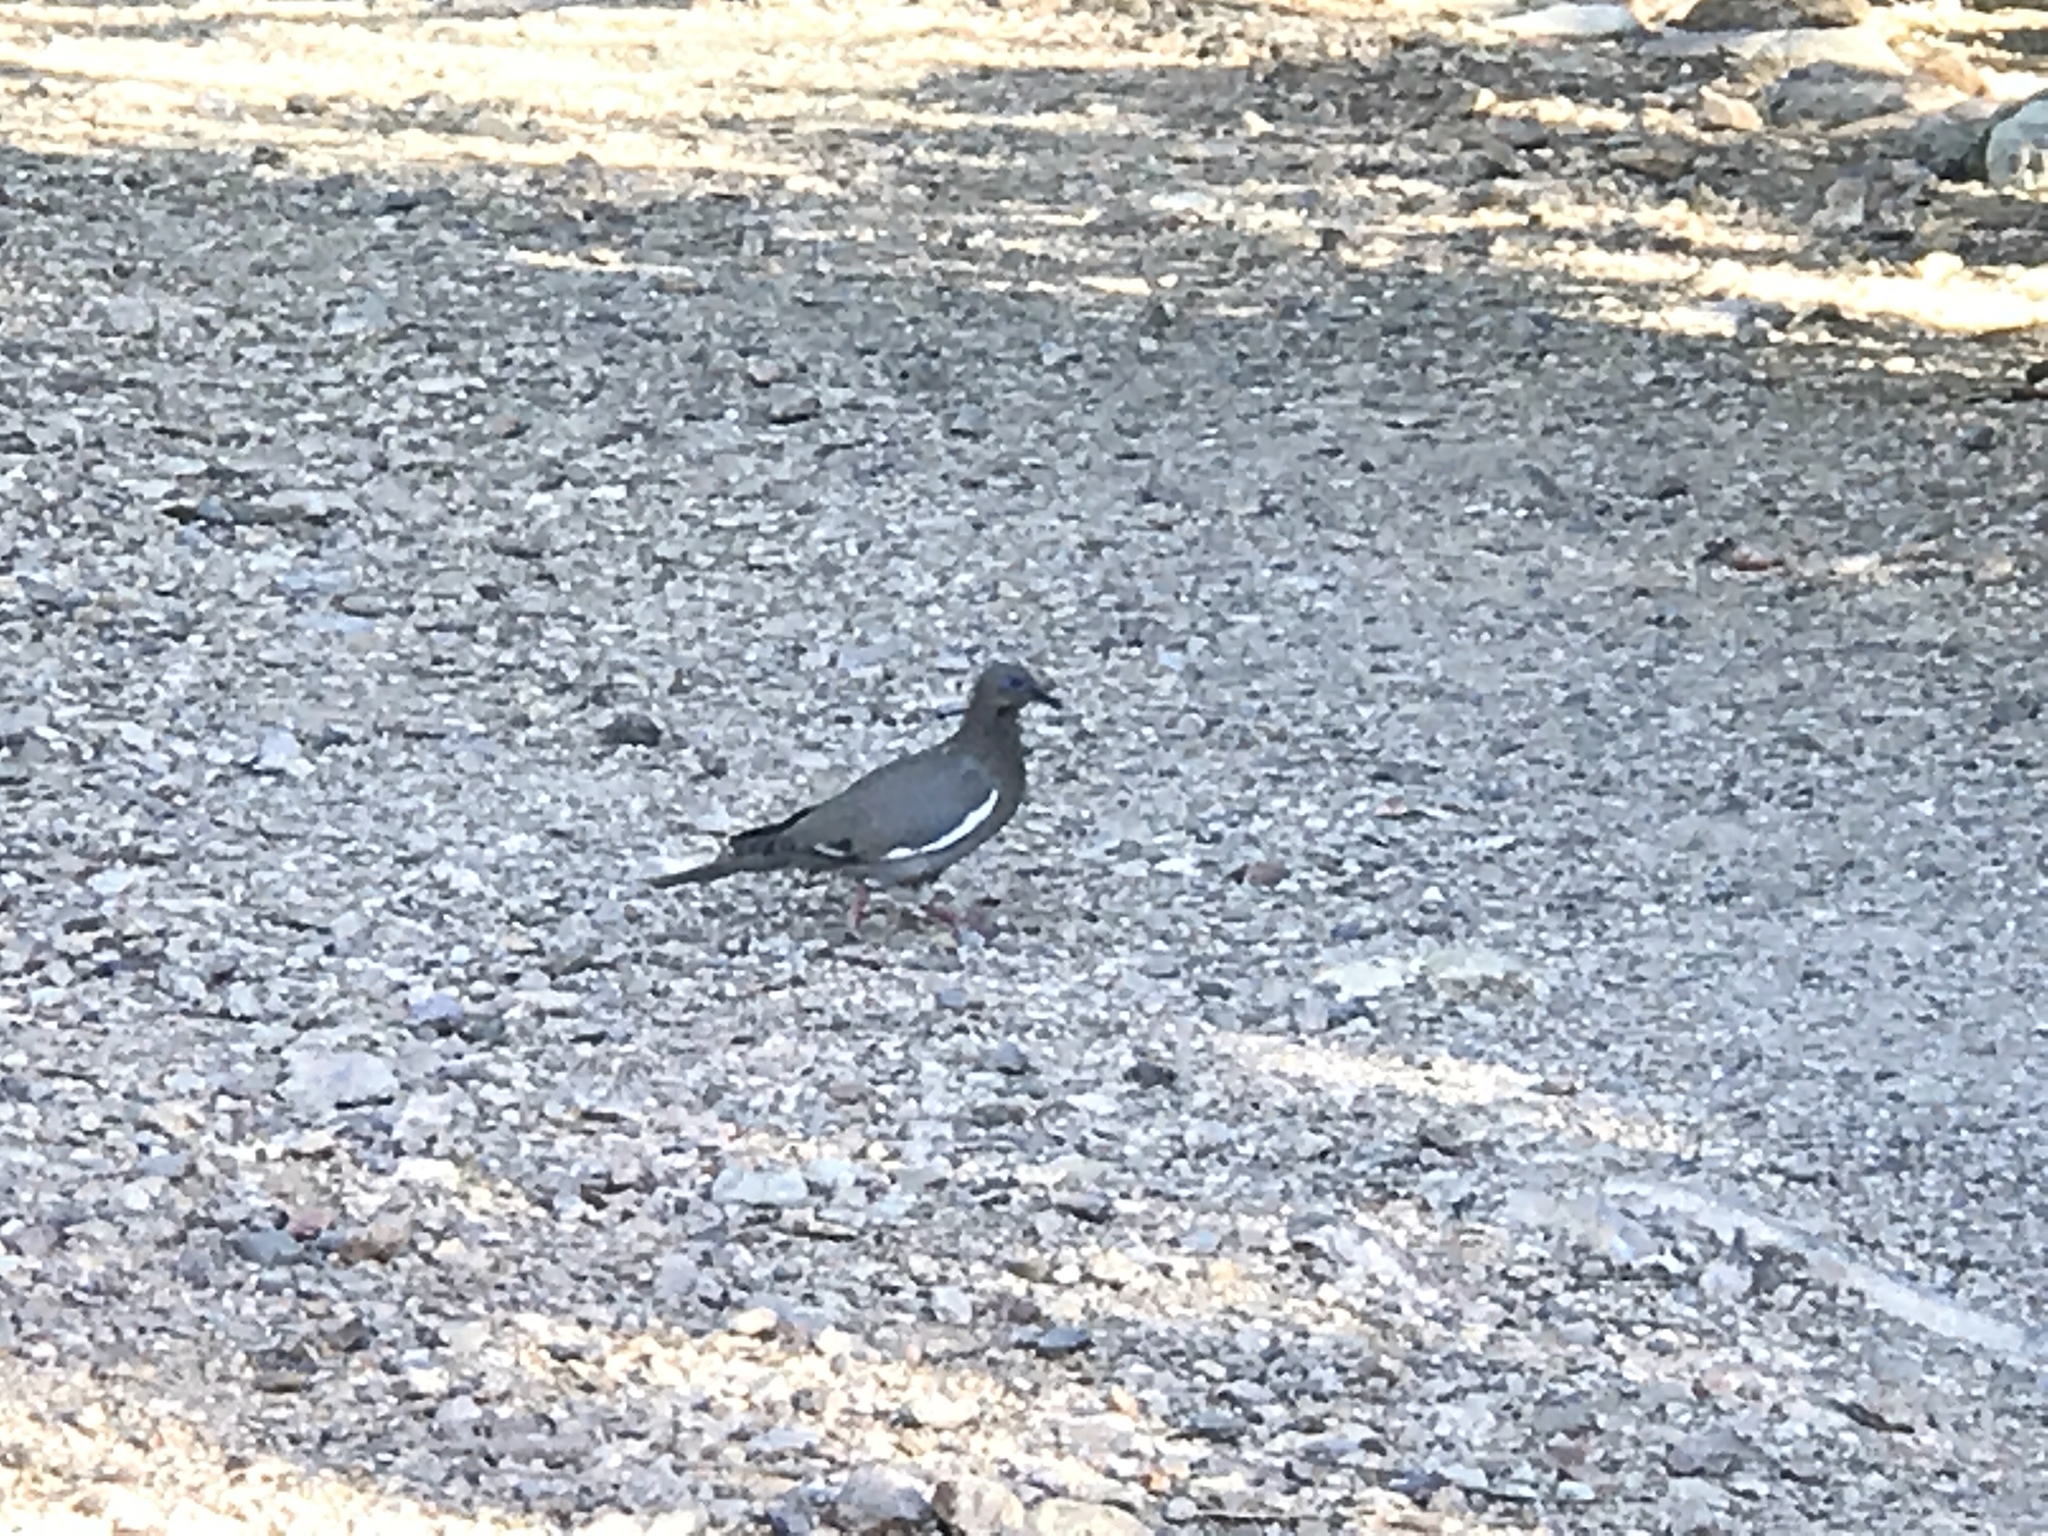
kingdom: Animalia
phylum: Chordata
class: Aves
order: Columbiformes
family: Columbidae
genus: Zenaida
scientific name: Zenaida asiatica
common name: White-winged dove
